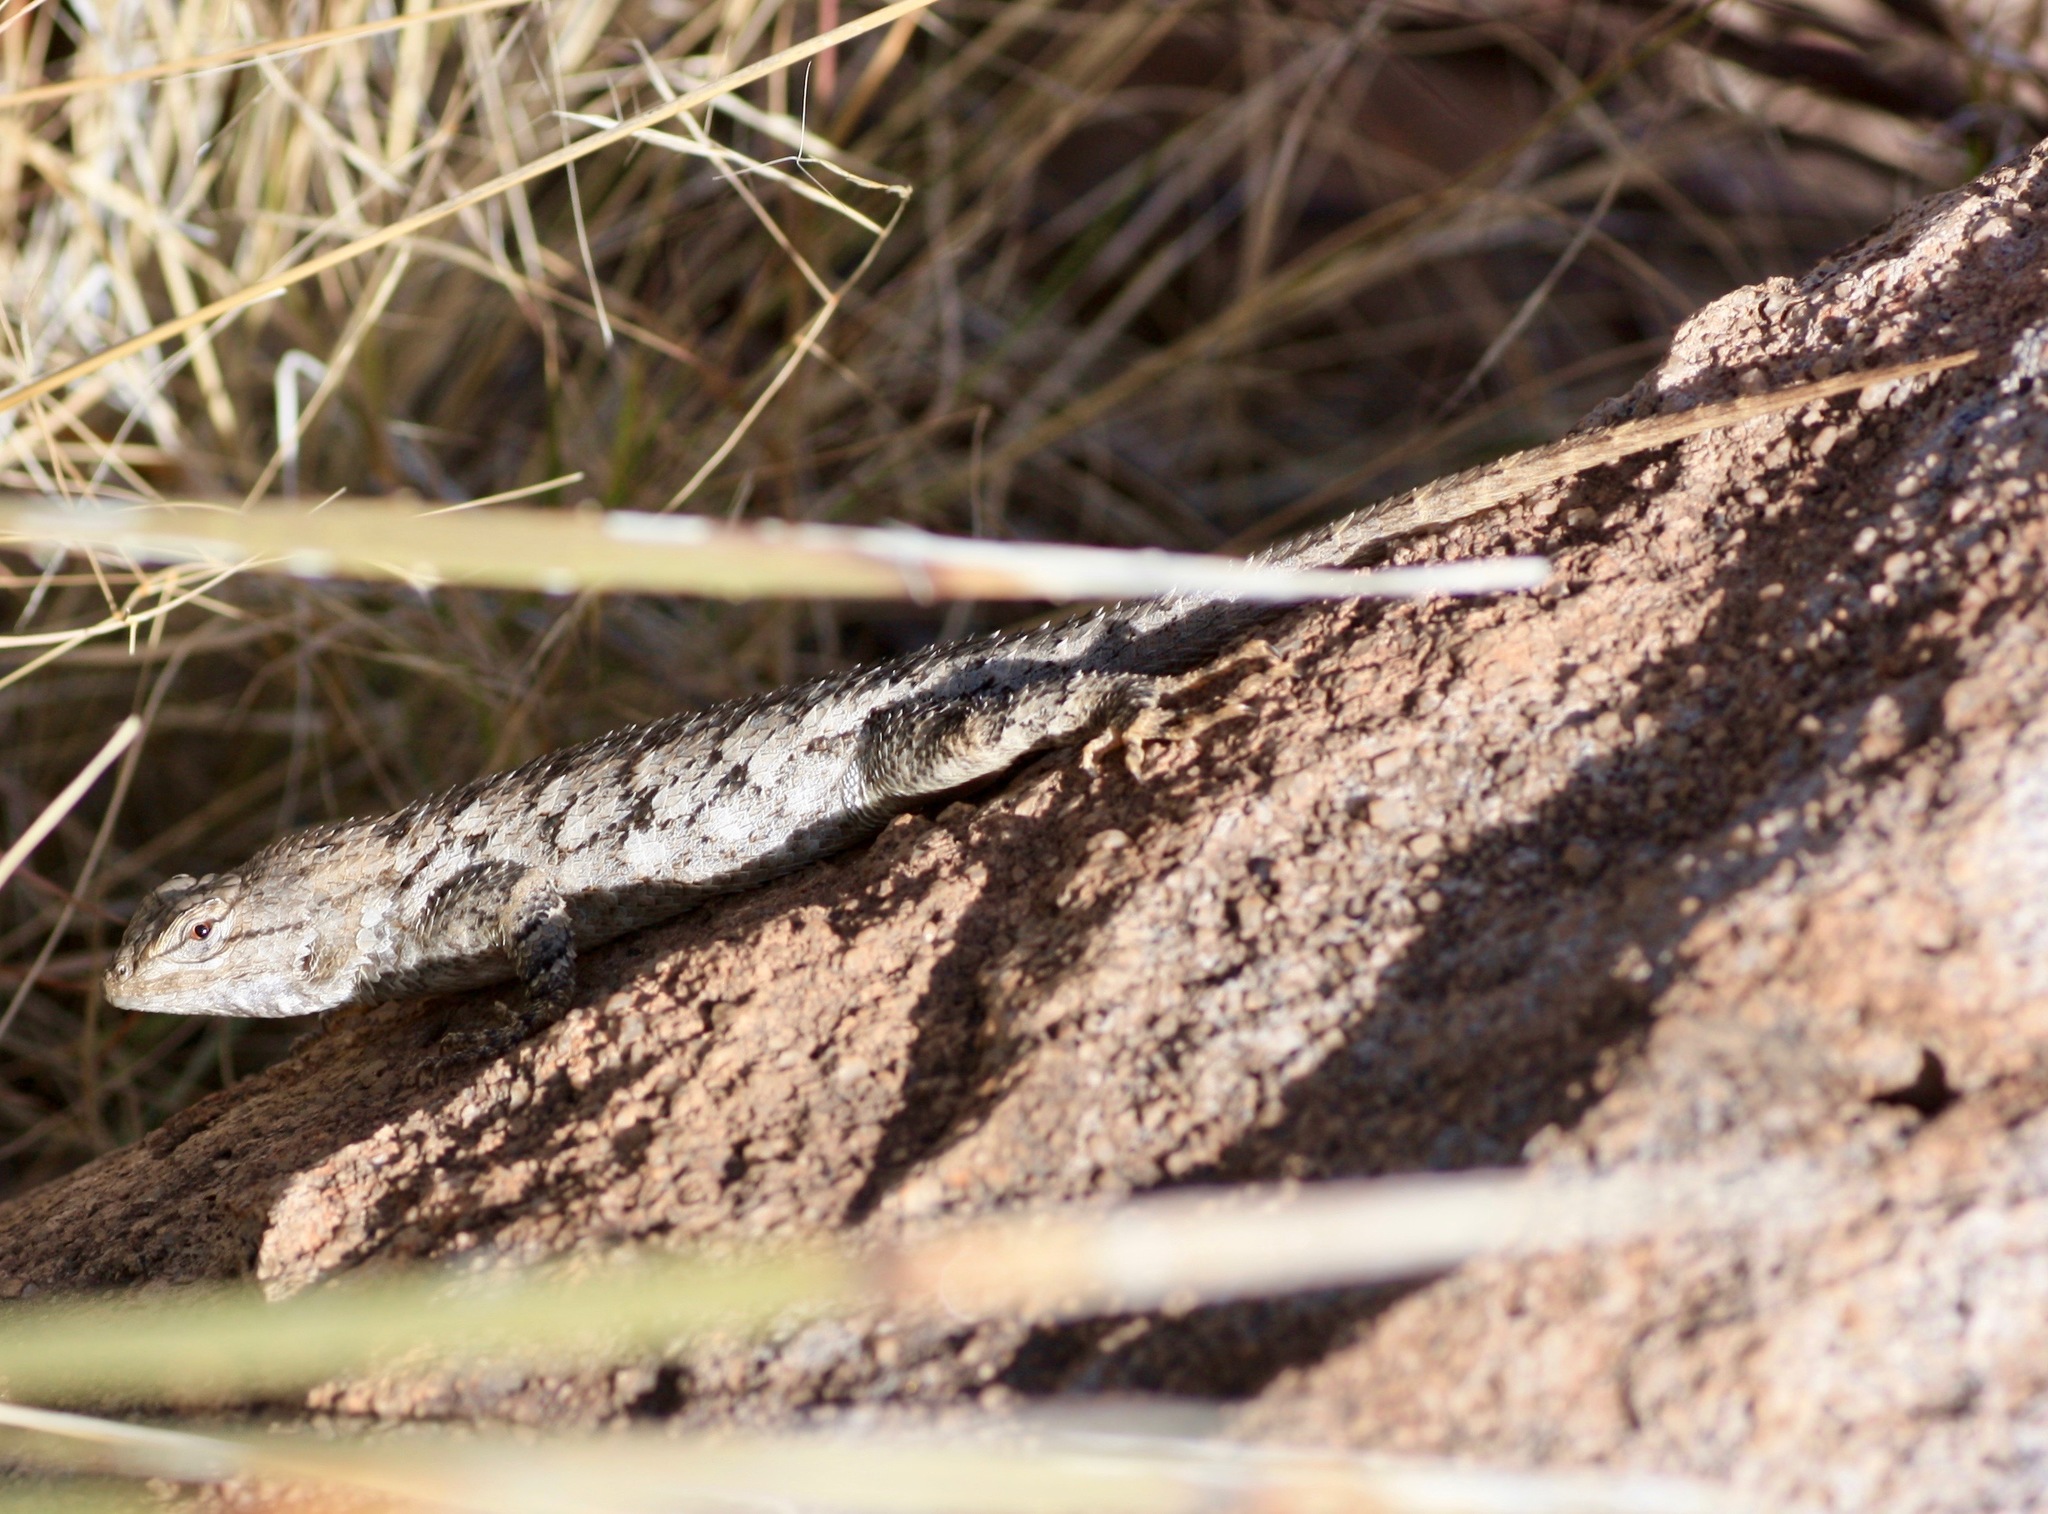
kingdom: Animalia
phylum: Chordata
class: Squamata
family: Phrynosomatidae
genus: Sceloporus
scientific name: Sceloporus clarkii
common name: Clark's spiny lizard
